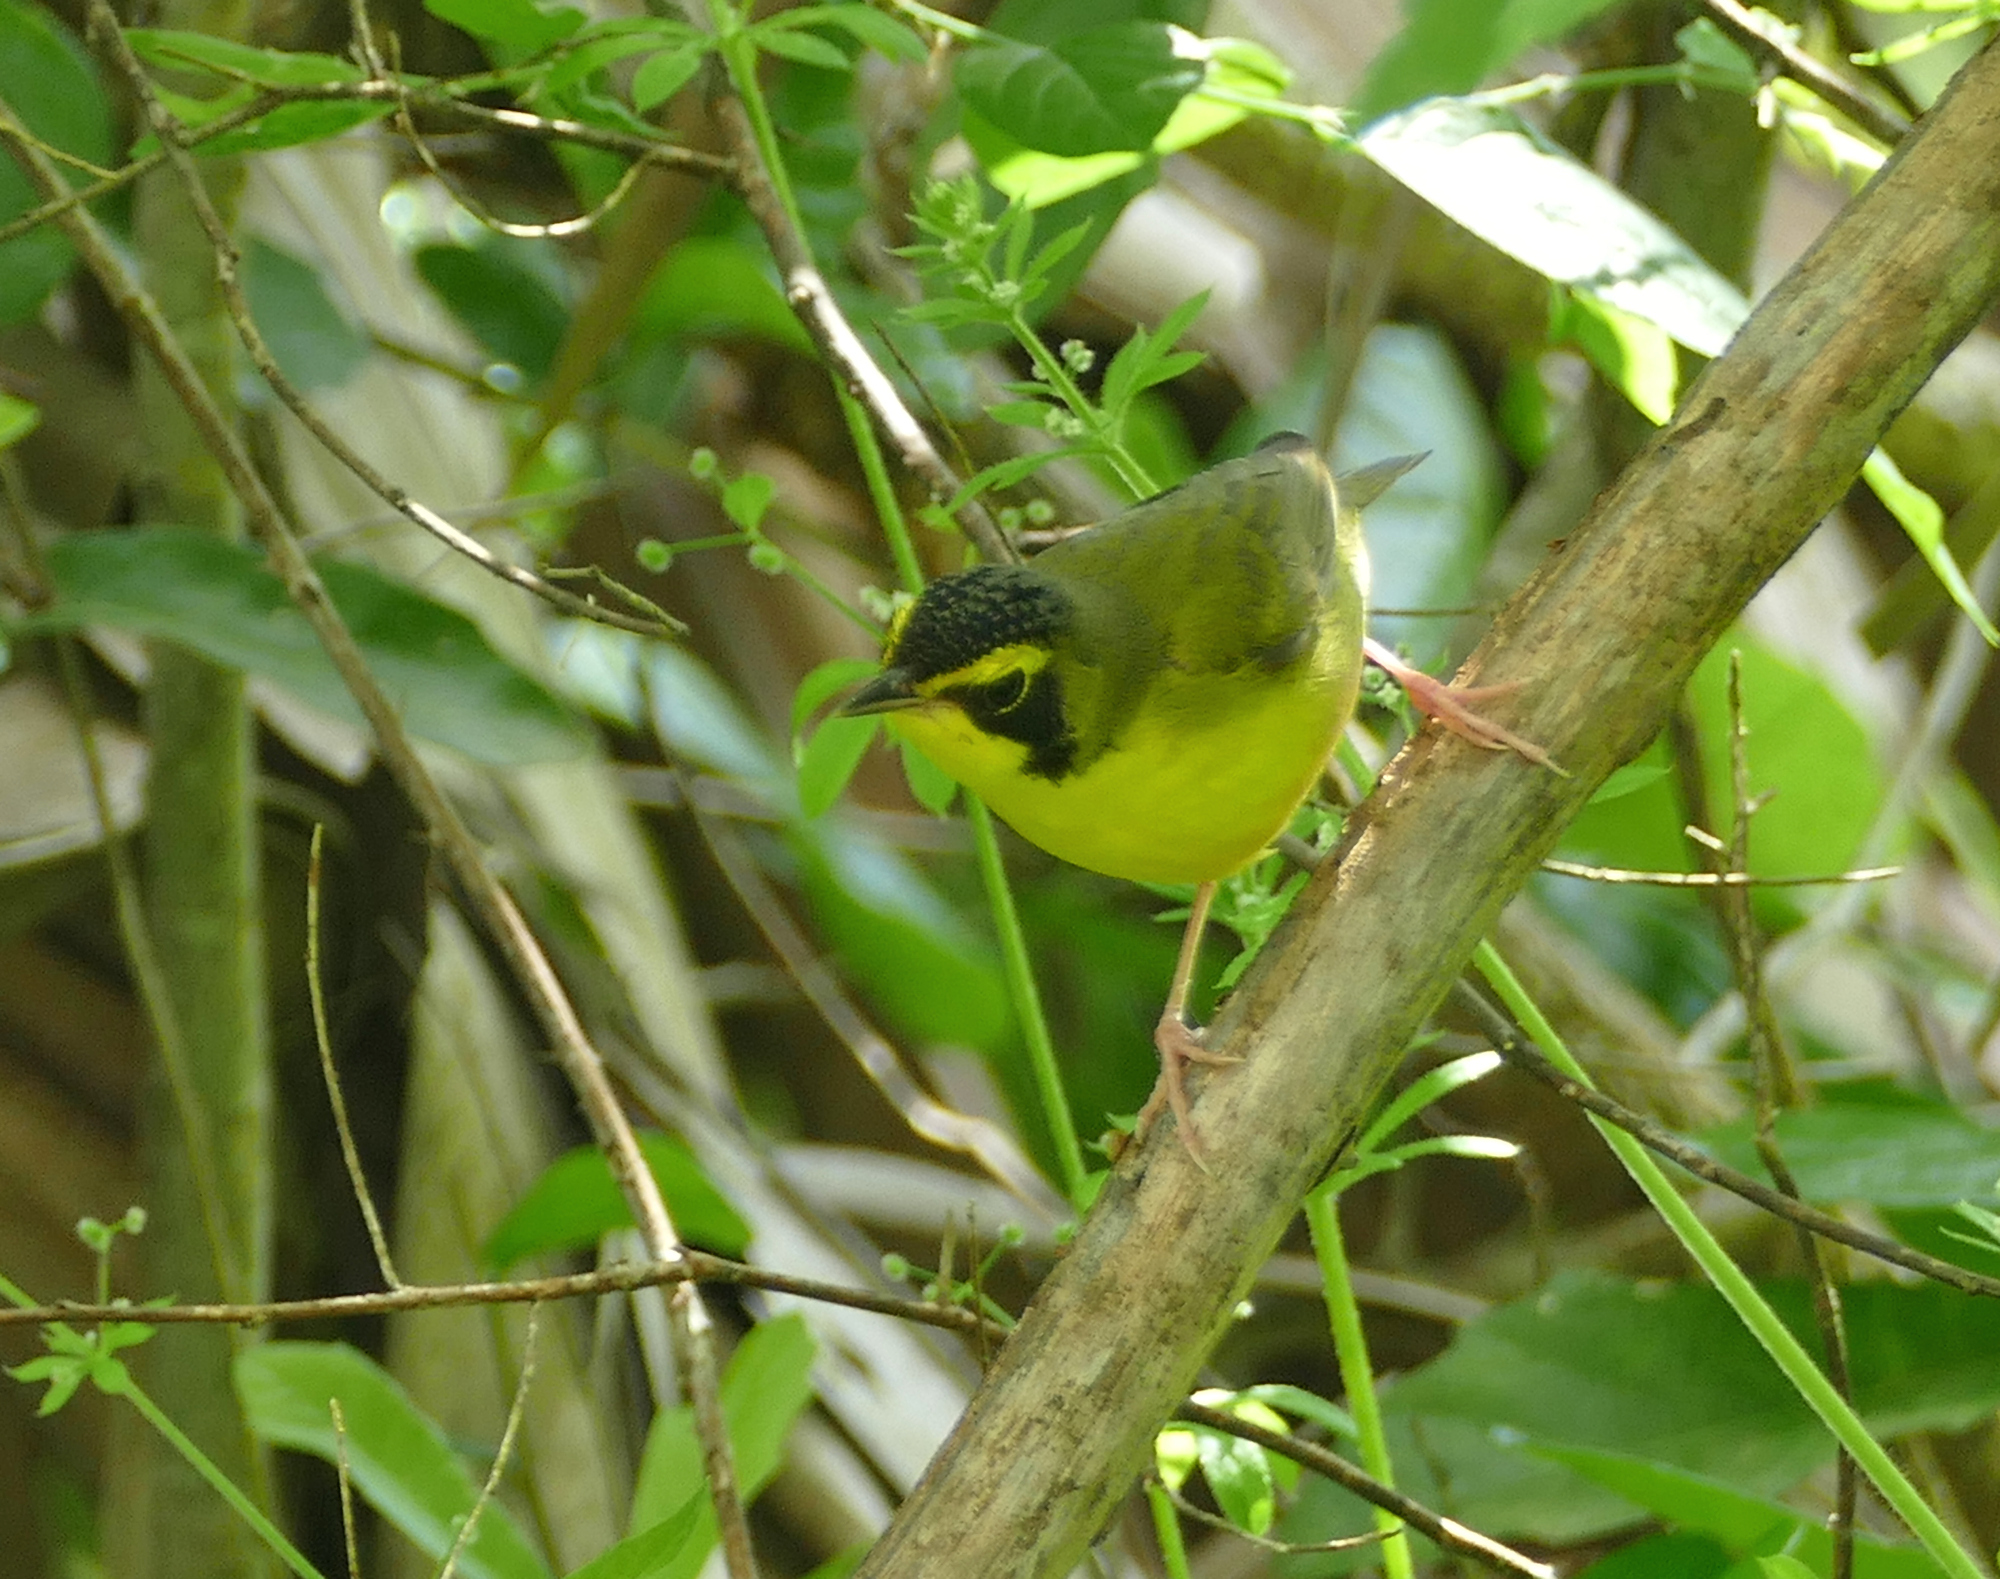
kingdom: Animalia
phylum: Chordata
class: Aves
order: Passeriformes
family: Parulidae
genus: Geothlypis
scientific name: Geothlypis formosa
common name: Kentucky warbler
